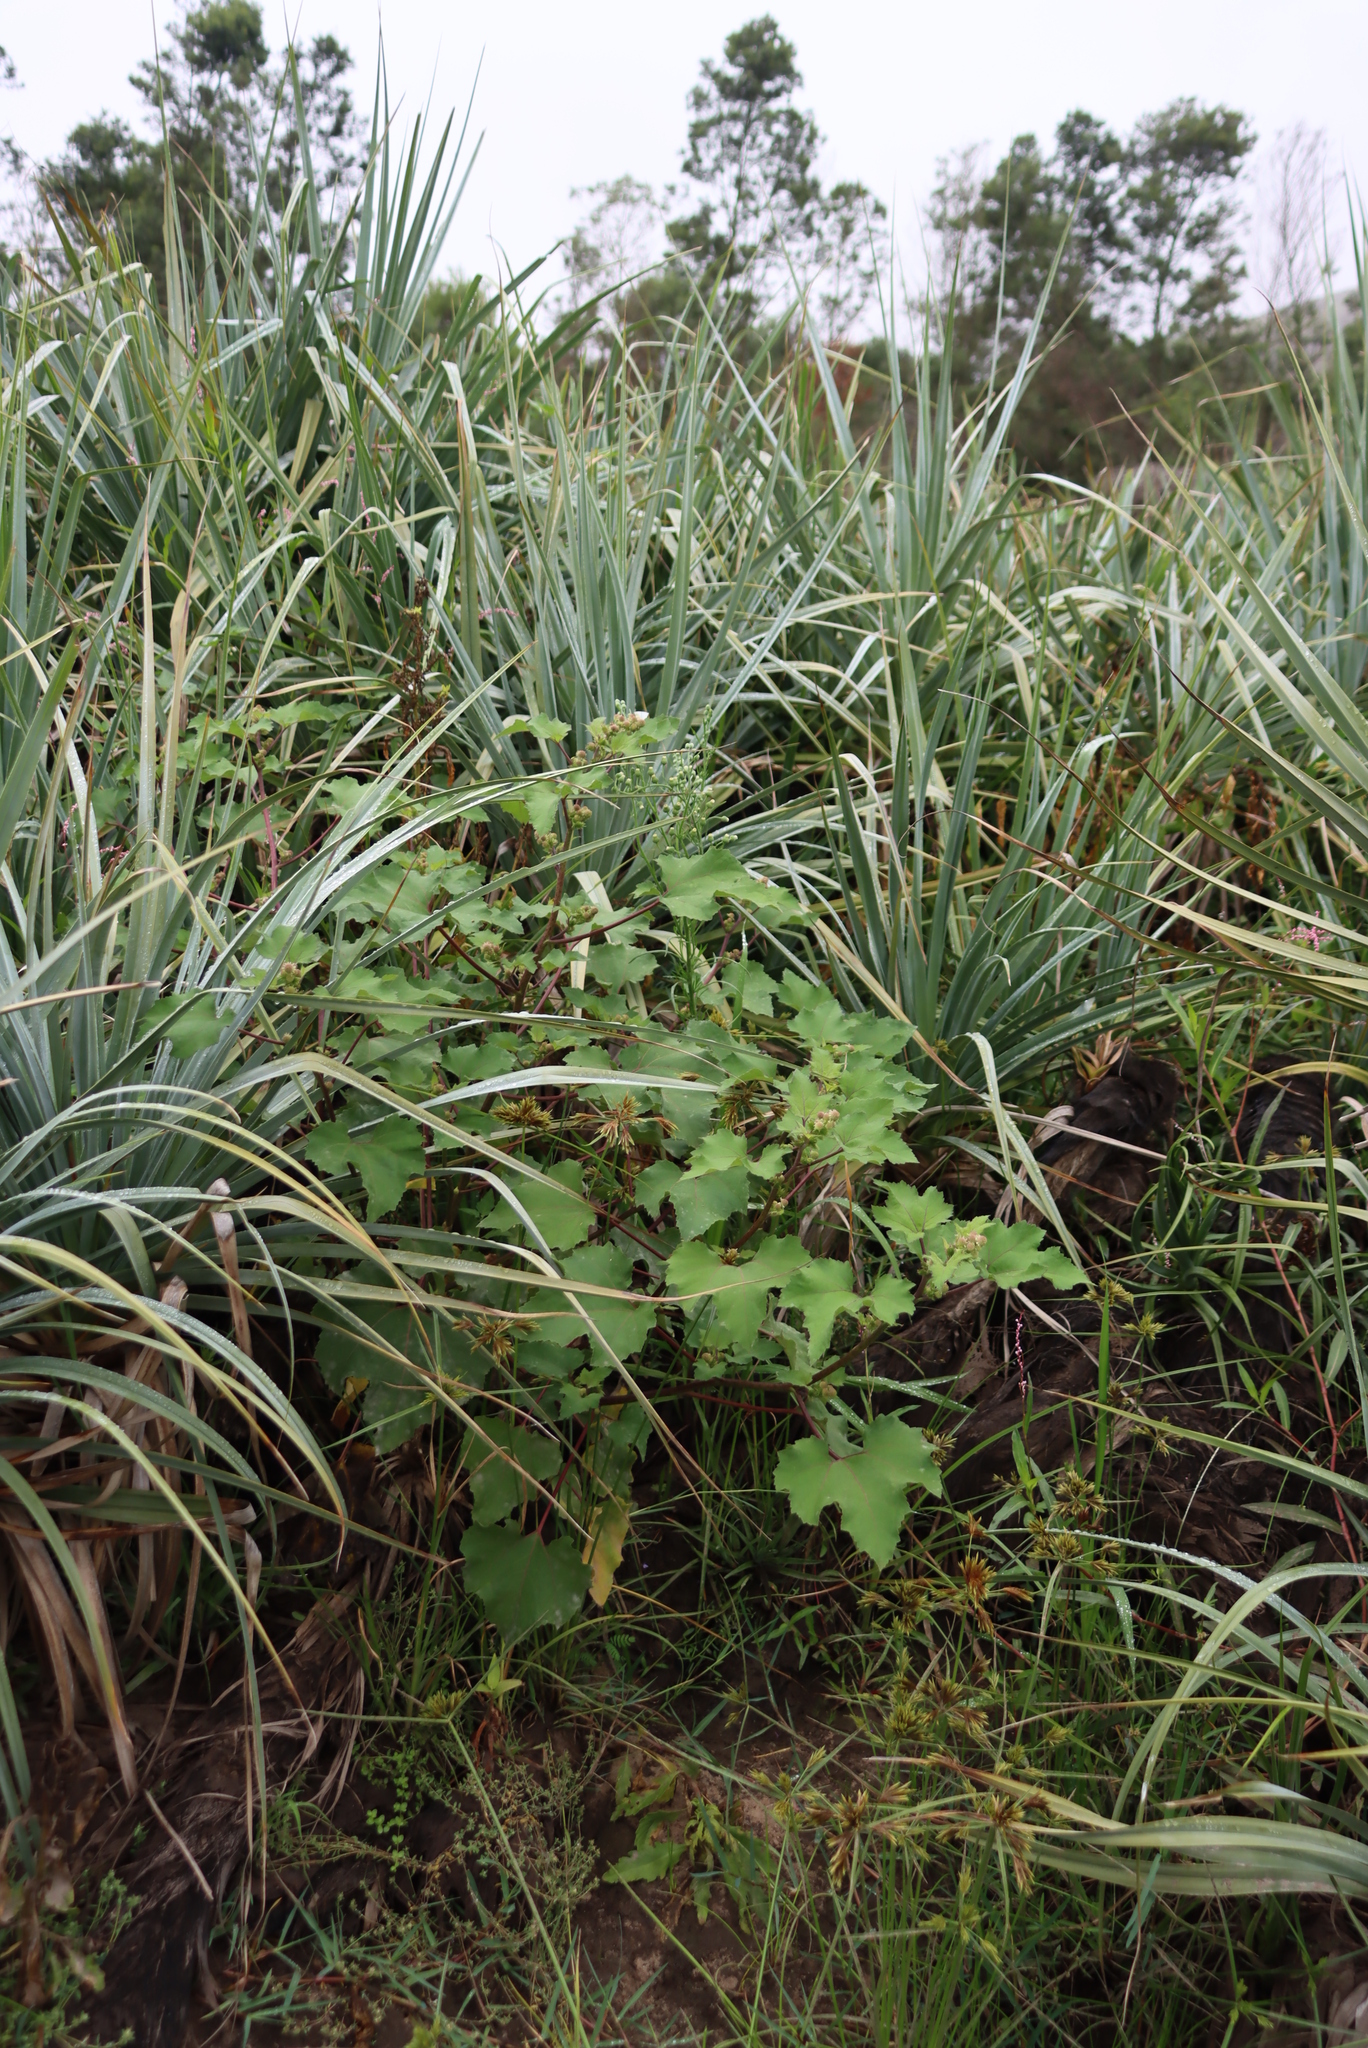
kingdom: Plantae
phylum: Tracheophyta
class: Magnoliopsida
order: Asterales
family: Asteraceae
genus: Xanthium
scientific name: Xanthium strumarium
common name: Rough cocklebur
